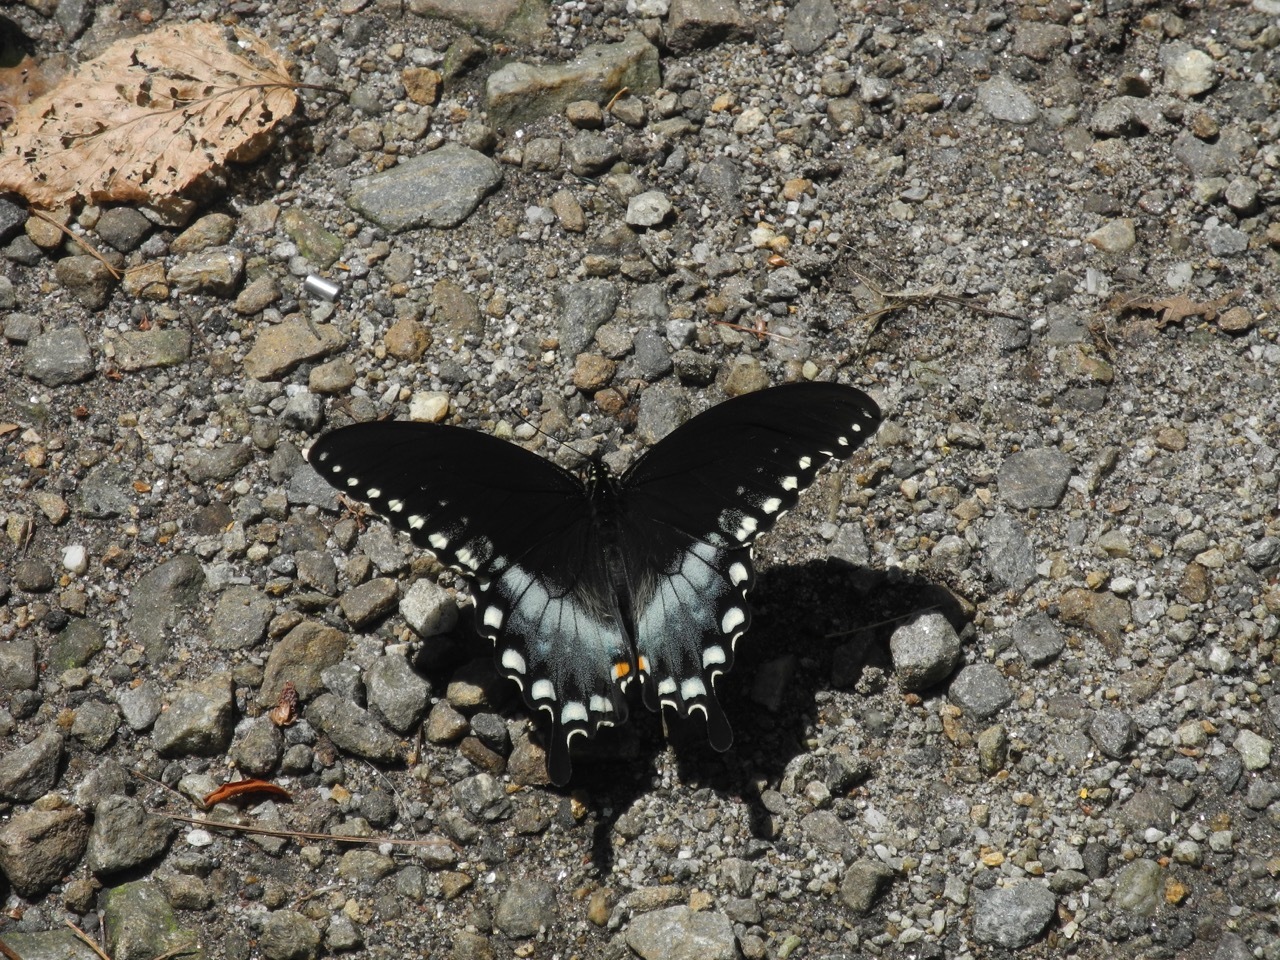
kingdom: Animalia
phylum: Arthropoda
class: Insecta
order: Lepidoptera
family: Papilionidae
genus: Papilio
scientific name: Papilio troilus
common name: Spicebush swallowtail
